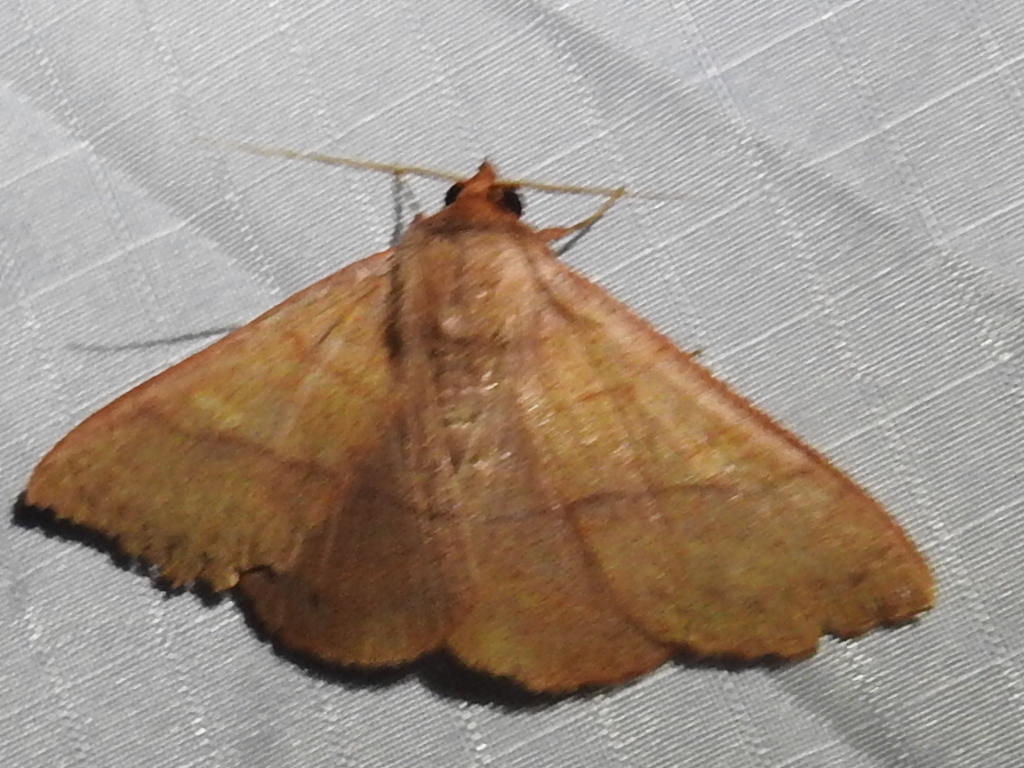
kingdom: Animalia
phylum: Arthropoda
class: Insecta
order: Lepidoptera
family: Erebidae
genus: Panopoda
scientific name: Panopoda rigida
